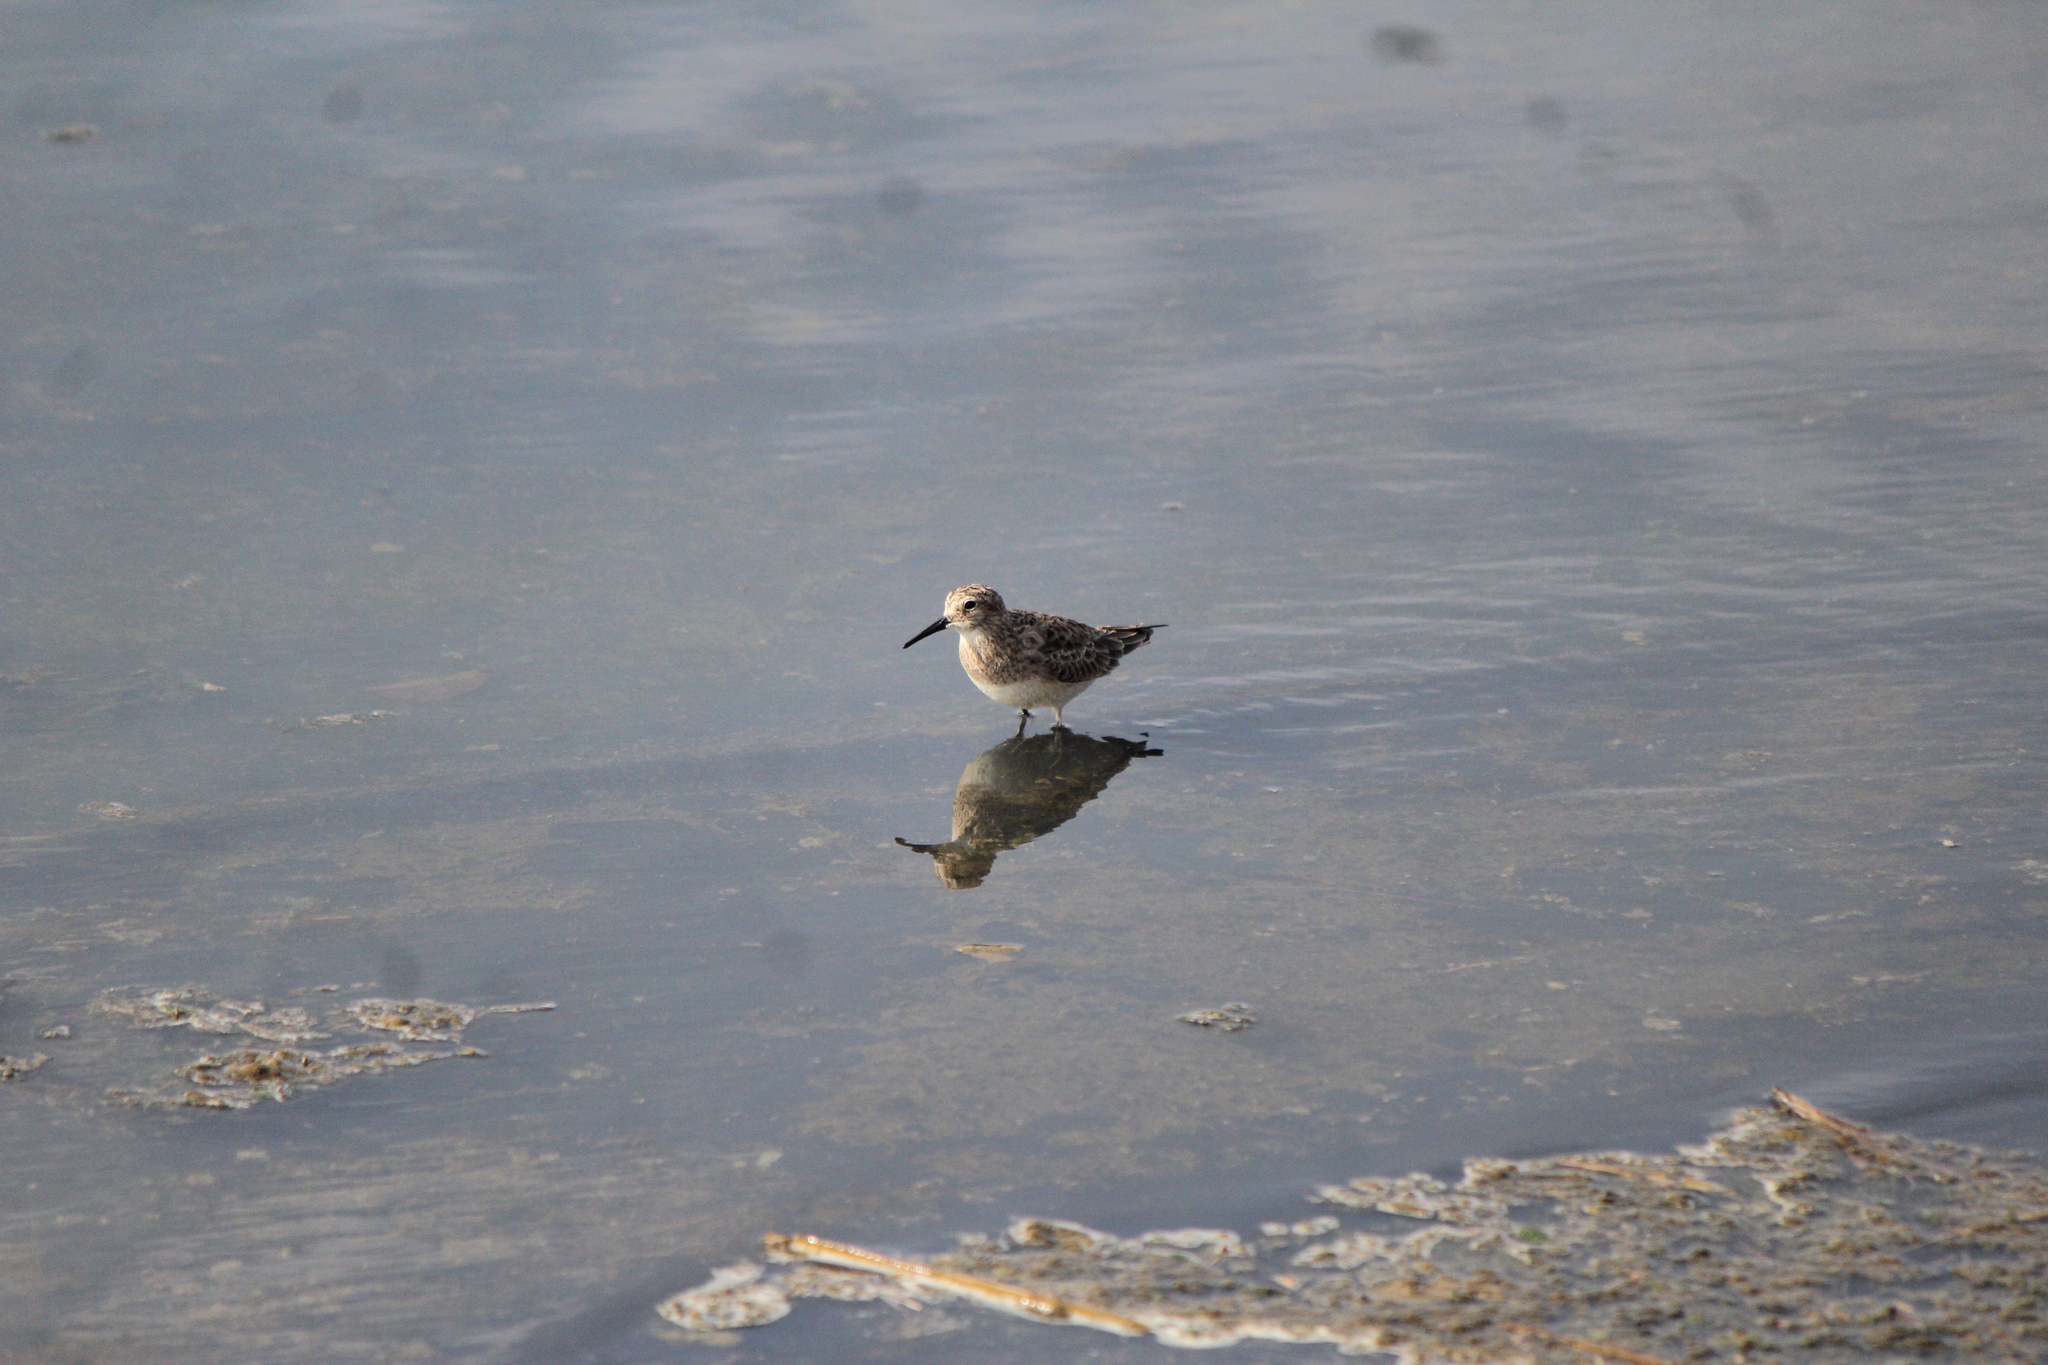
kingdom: Animalia
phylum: Chordata
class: Aves
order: Charadriiformes
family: Scolopacidae
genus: Calidris
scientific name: Calidris bairdii
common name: Baird's sandpiper
